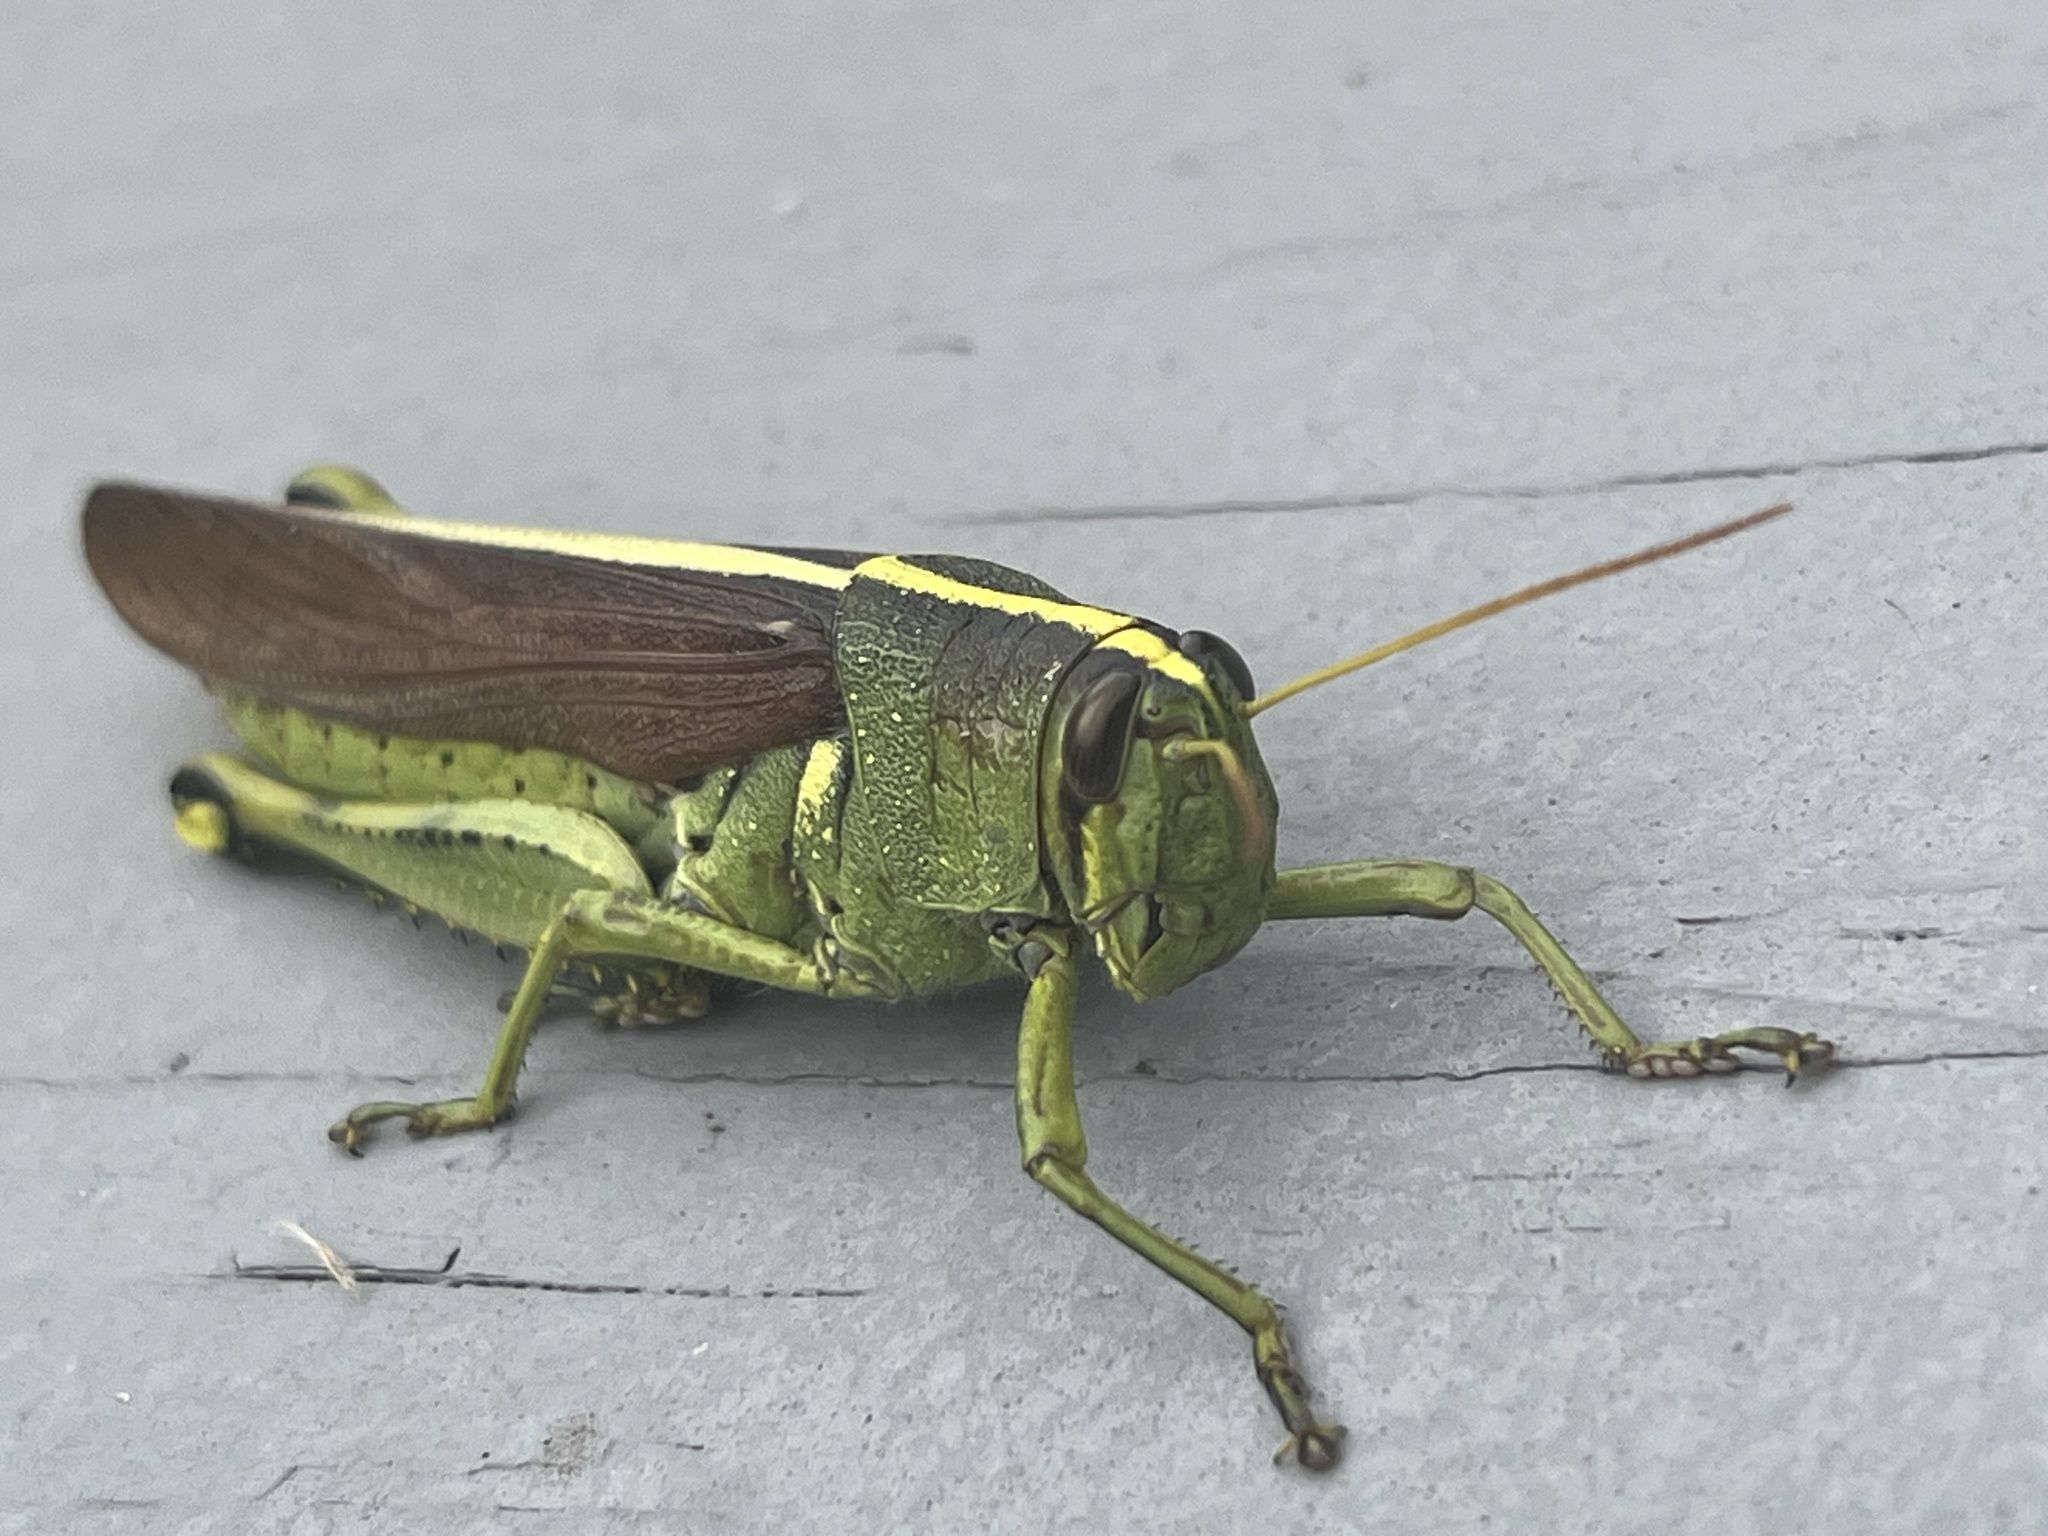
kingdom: Animalia
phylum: Arthropoda
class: Insecta
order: Orthoptera
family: Acrididae
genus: Schistocerca
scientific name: Schistocerca obscura
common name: Obscure bird grasshopper
